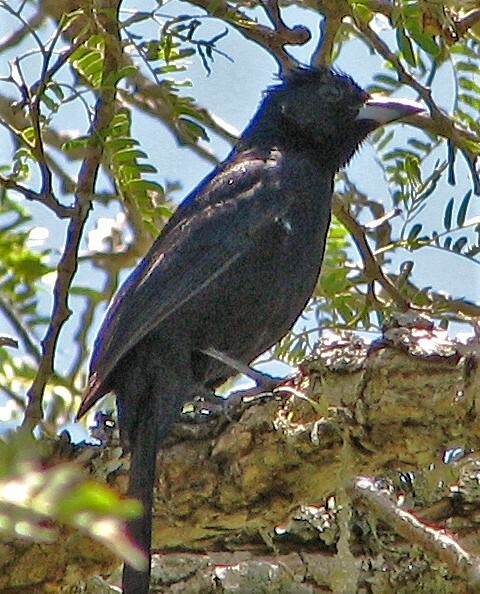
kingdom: Animalia
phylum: Chordata
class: Aves
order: Passeriformes
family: Thraupidae
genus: Tachyphonus
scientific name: Tachyphonus rufus
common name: White-lined tanager
